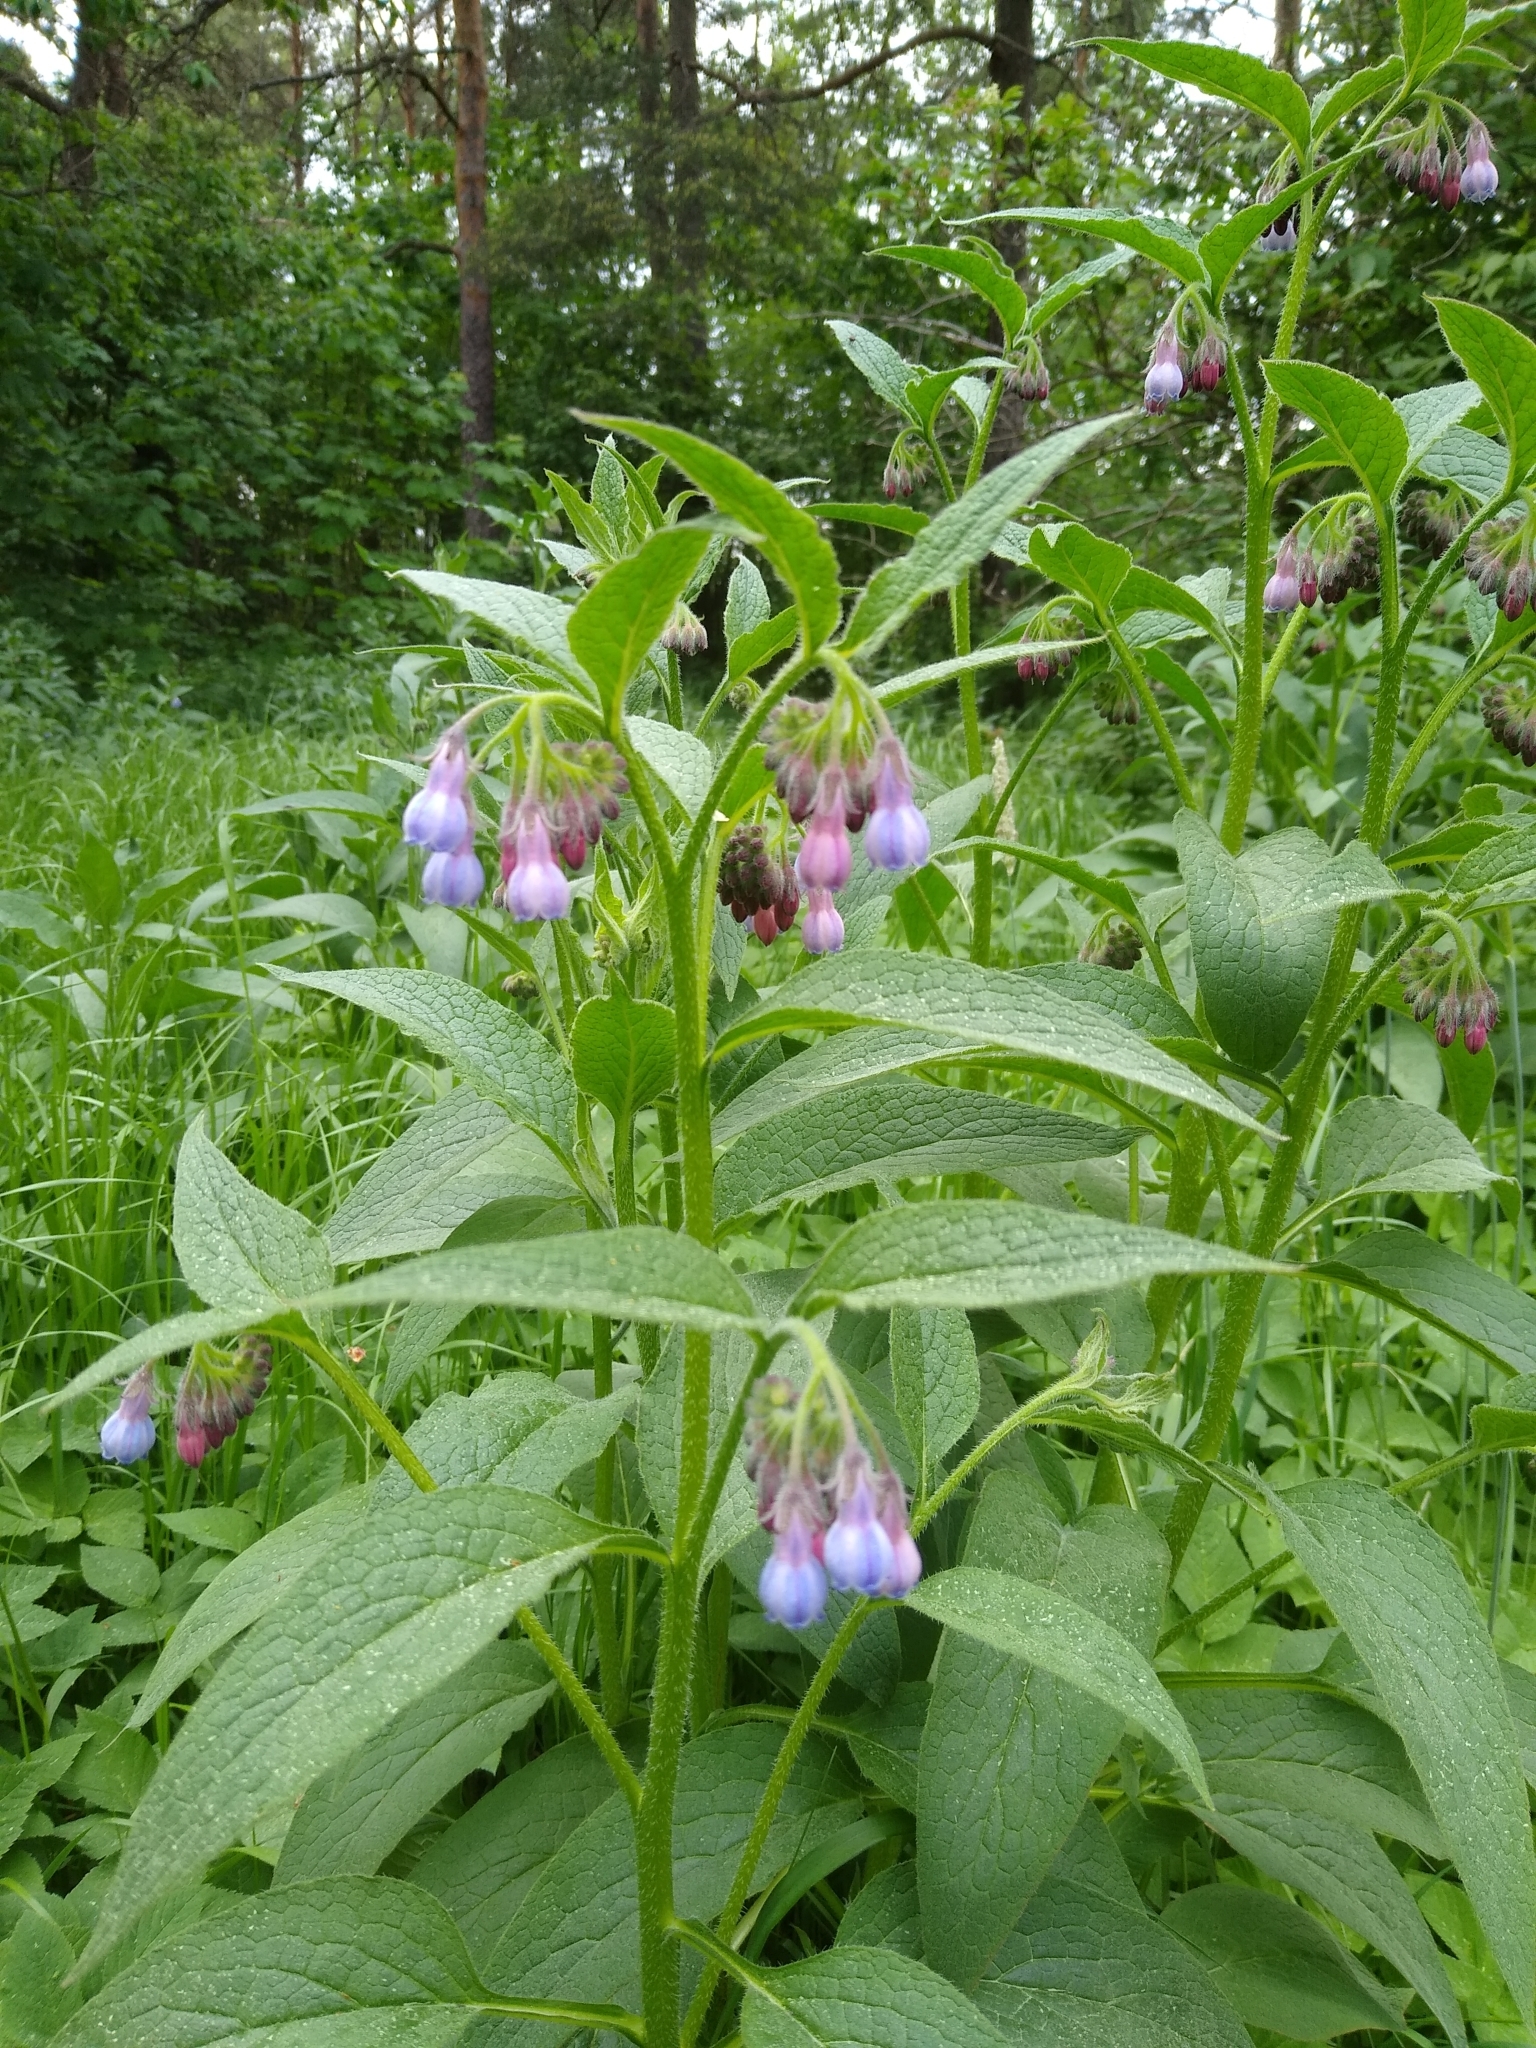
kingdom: Plantae
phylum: Tracheophyta
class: Magnoliopsida
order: Boraginales
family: Boraginaceae
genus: Symphytum
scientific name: Symphytum officinale
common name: Common comfrey
